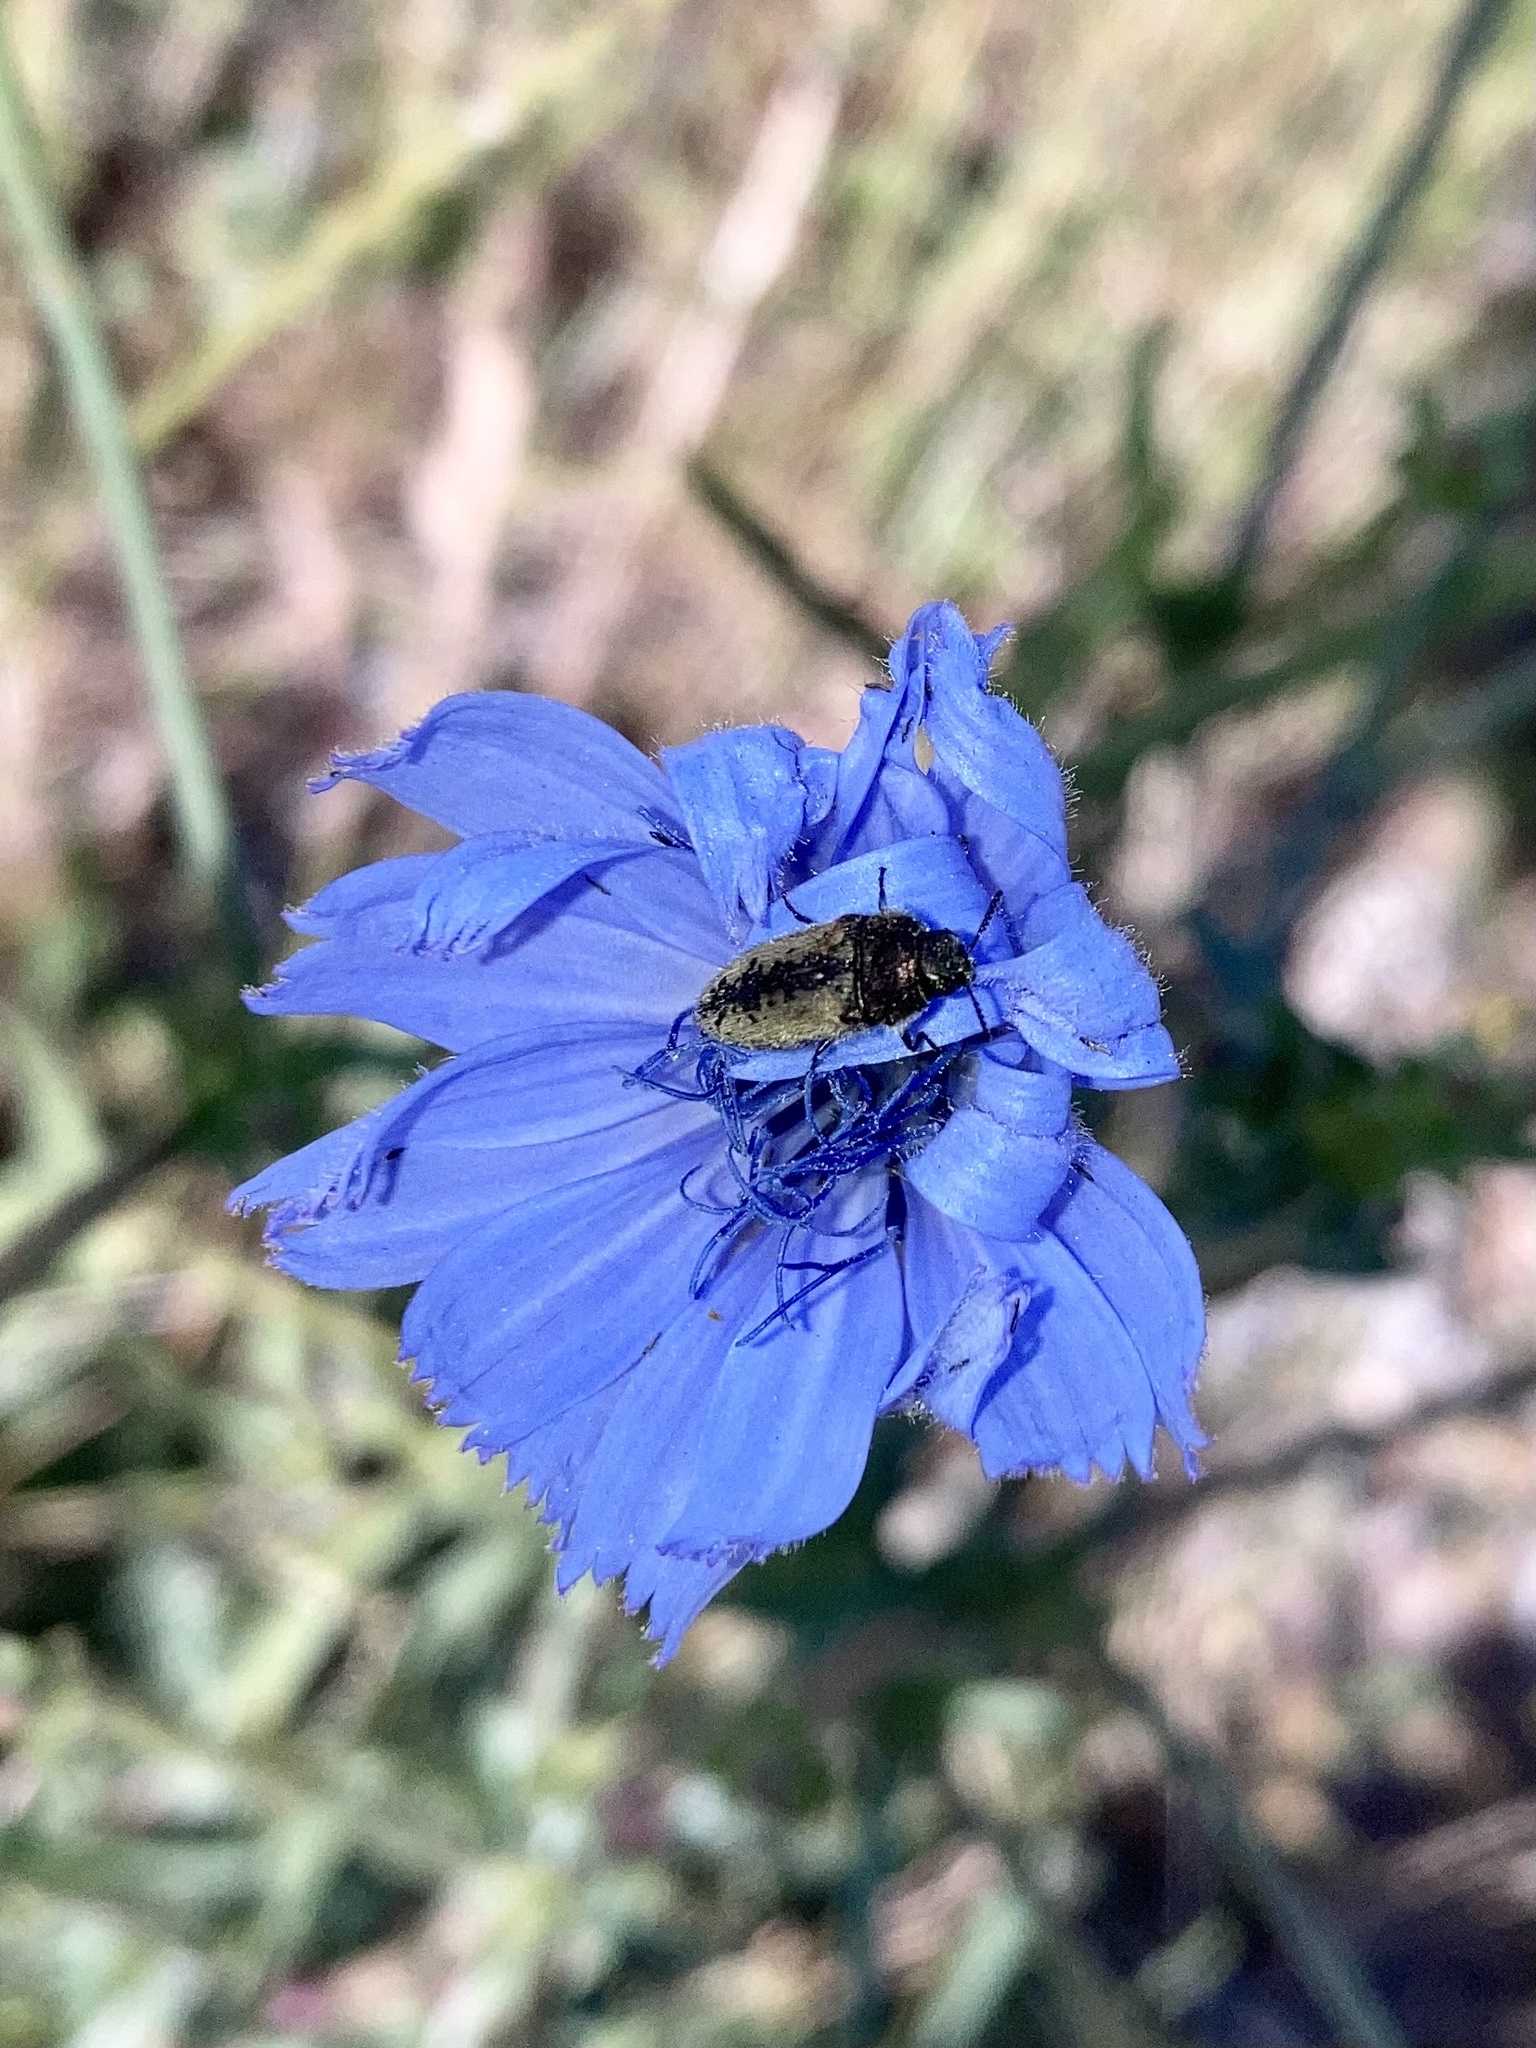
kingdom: Plantae
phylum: Tracheophyta
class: Magnoliopsida
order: Asterales
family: Asteraceae
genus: Cichorium
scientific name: Cichorium intybus
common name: Chicory
